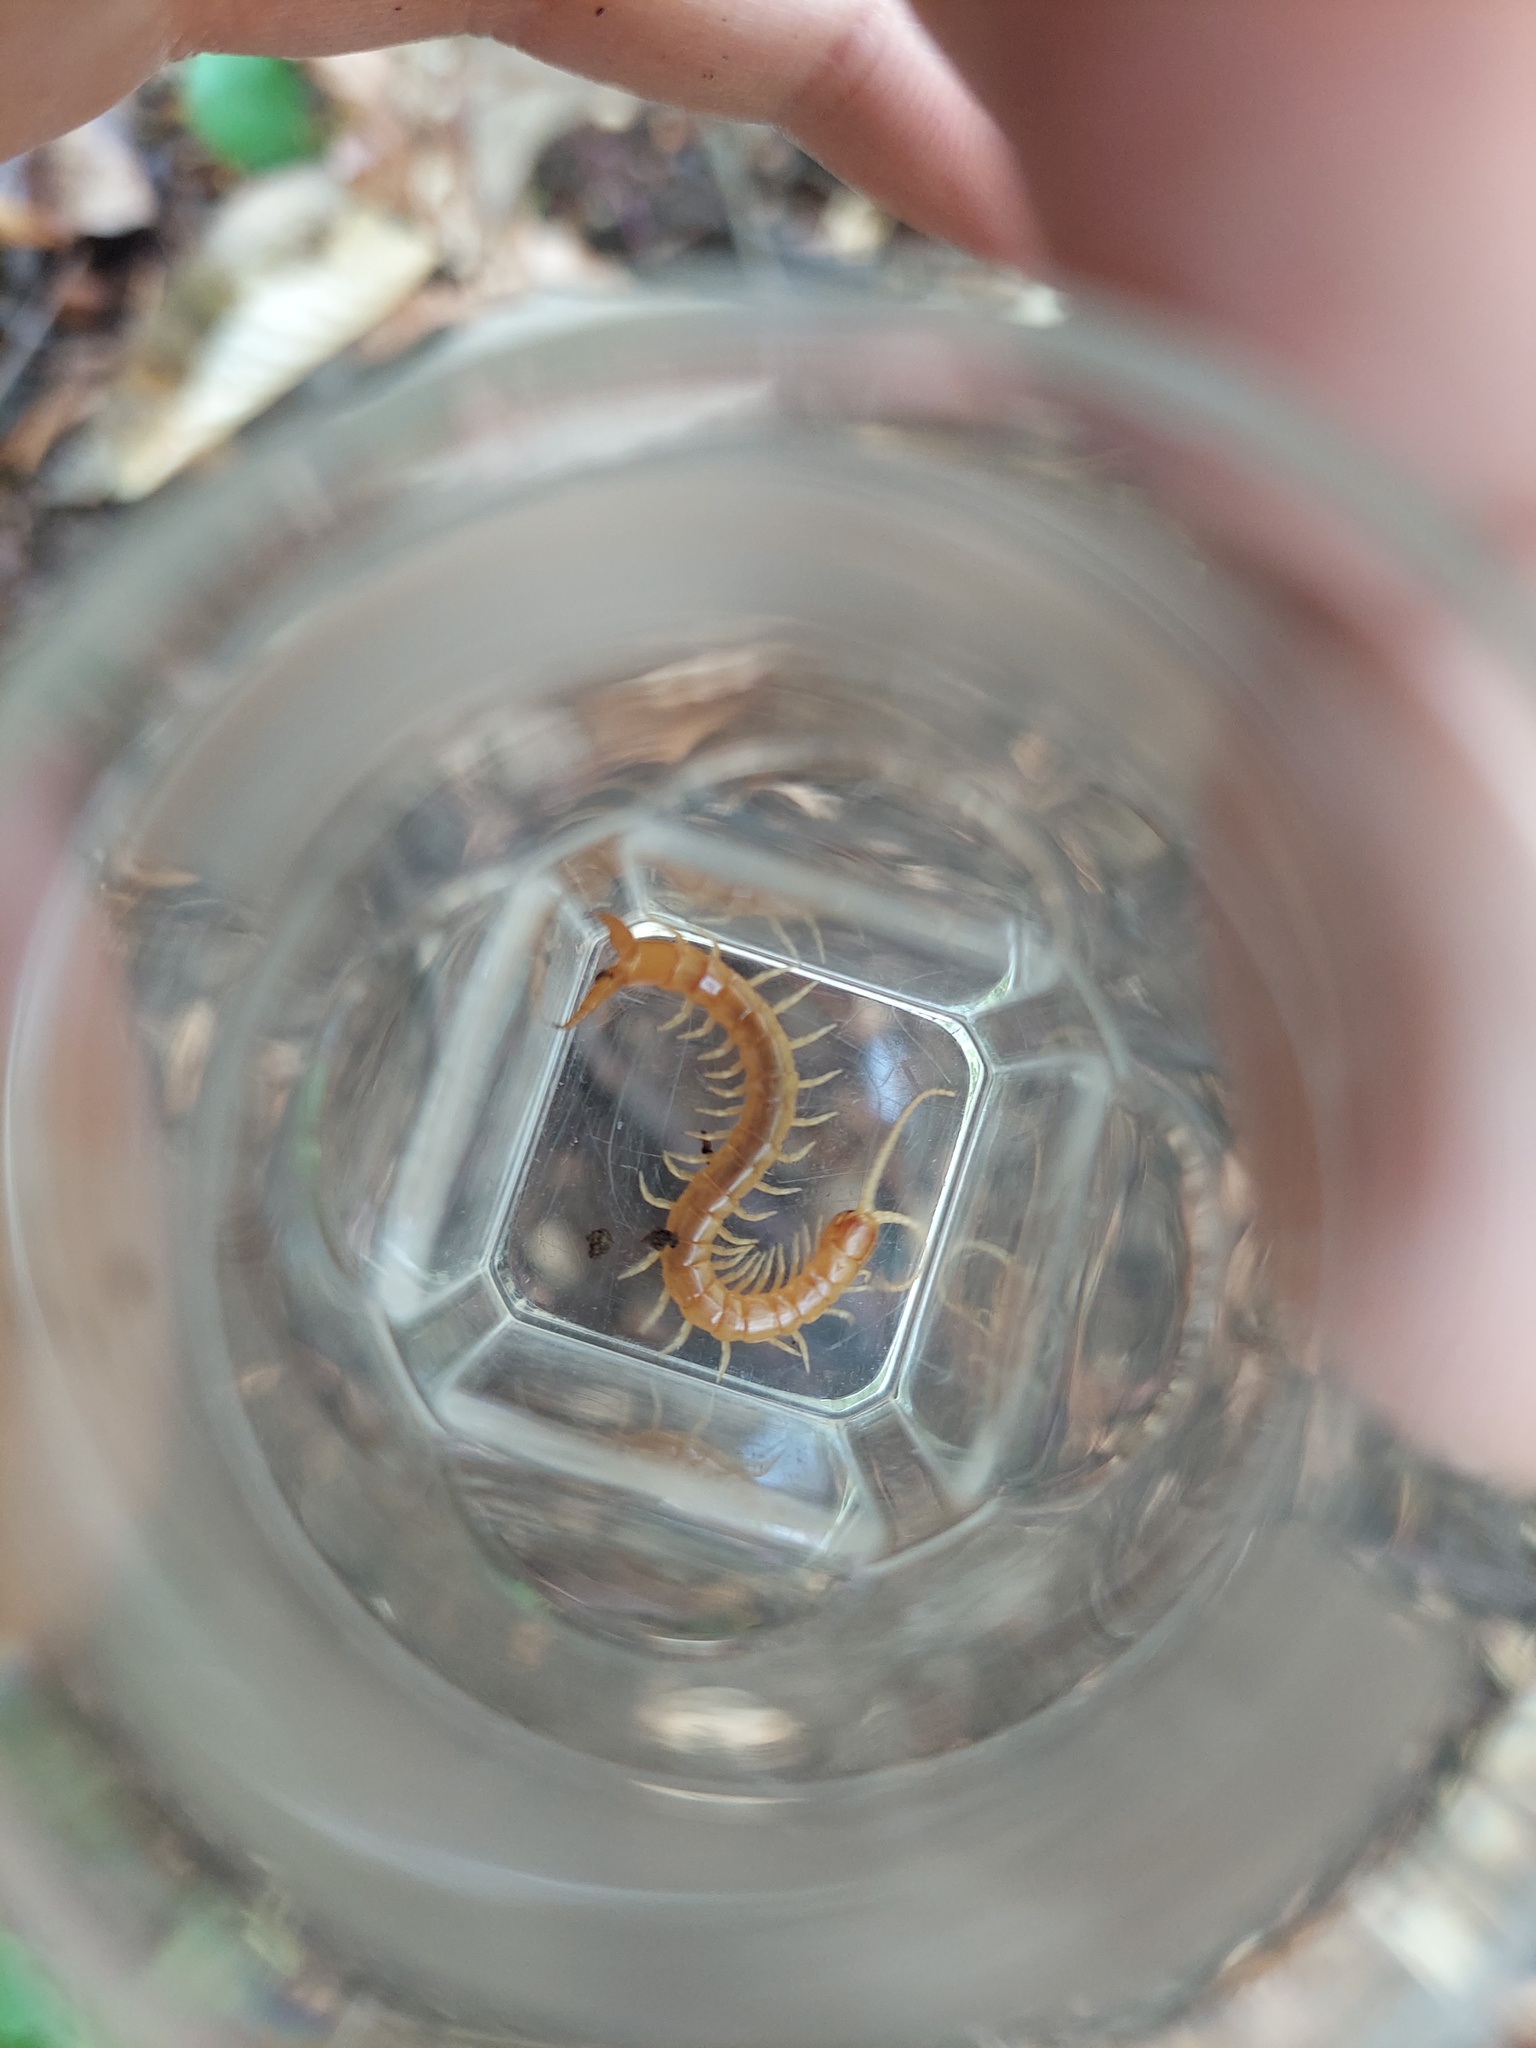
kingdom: Animalia
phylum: Arthropoda
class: Chilopoda
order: Scolopendromorpha
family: Cryptopidae
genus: Theatops
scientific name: Theatops posticus
